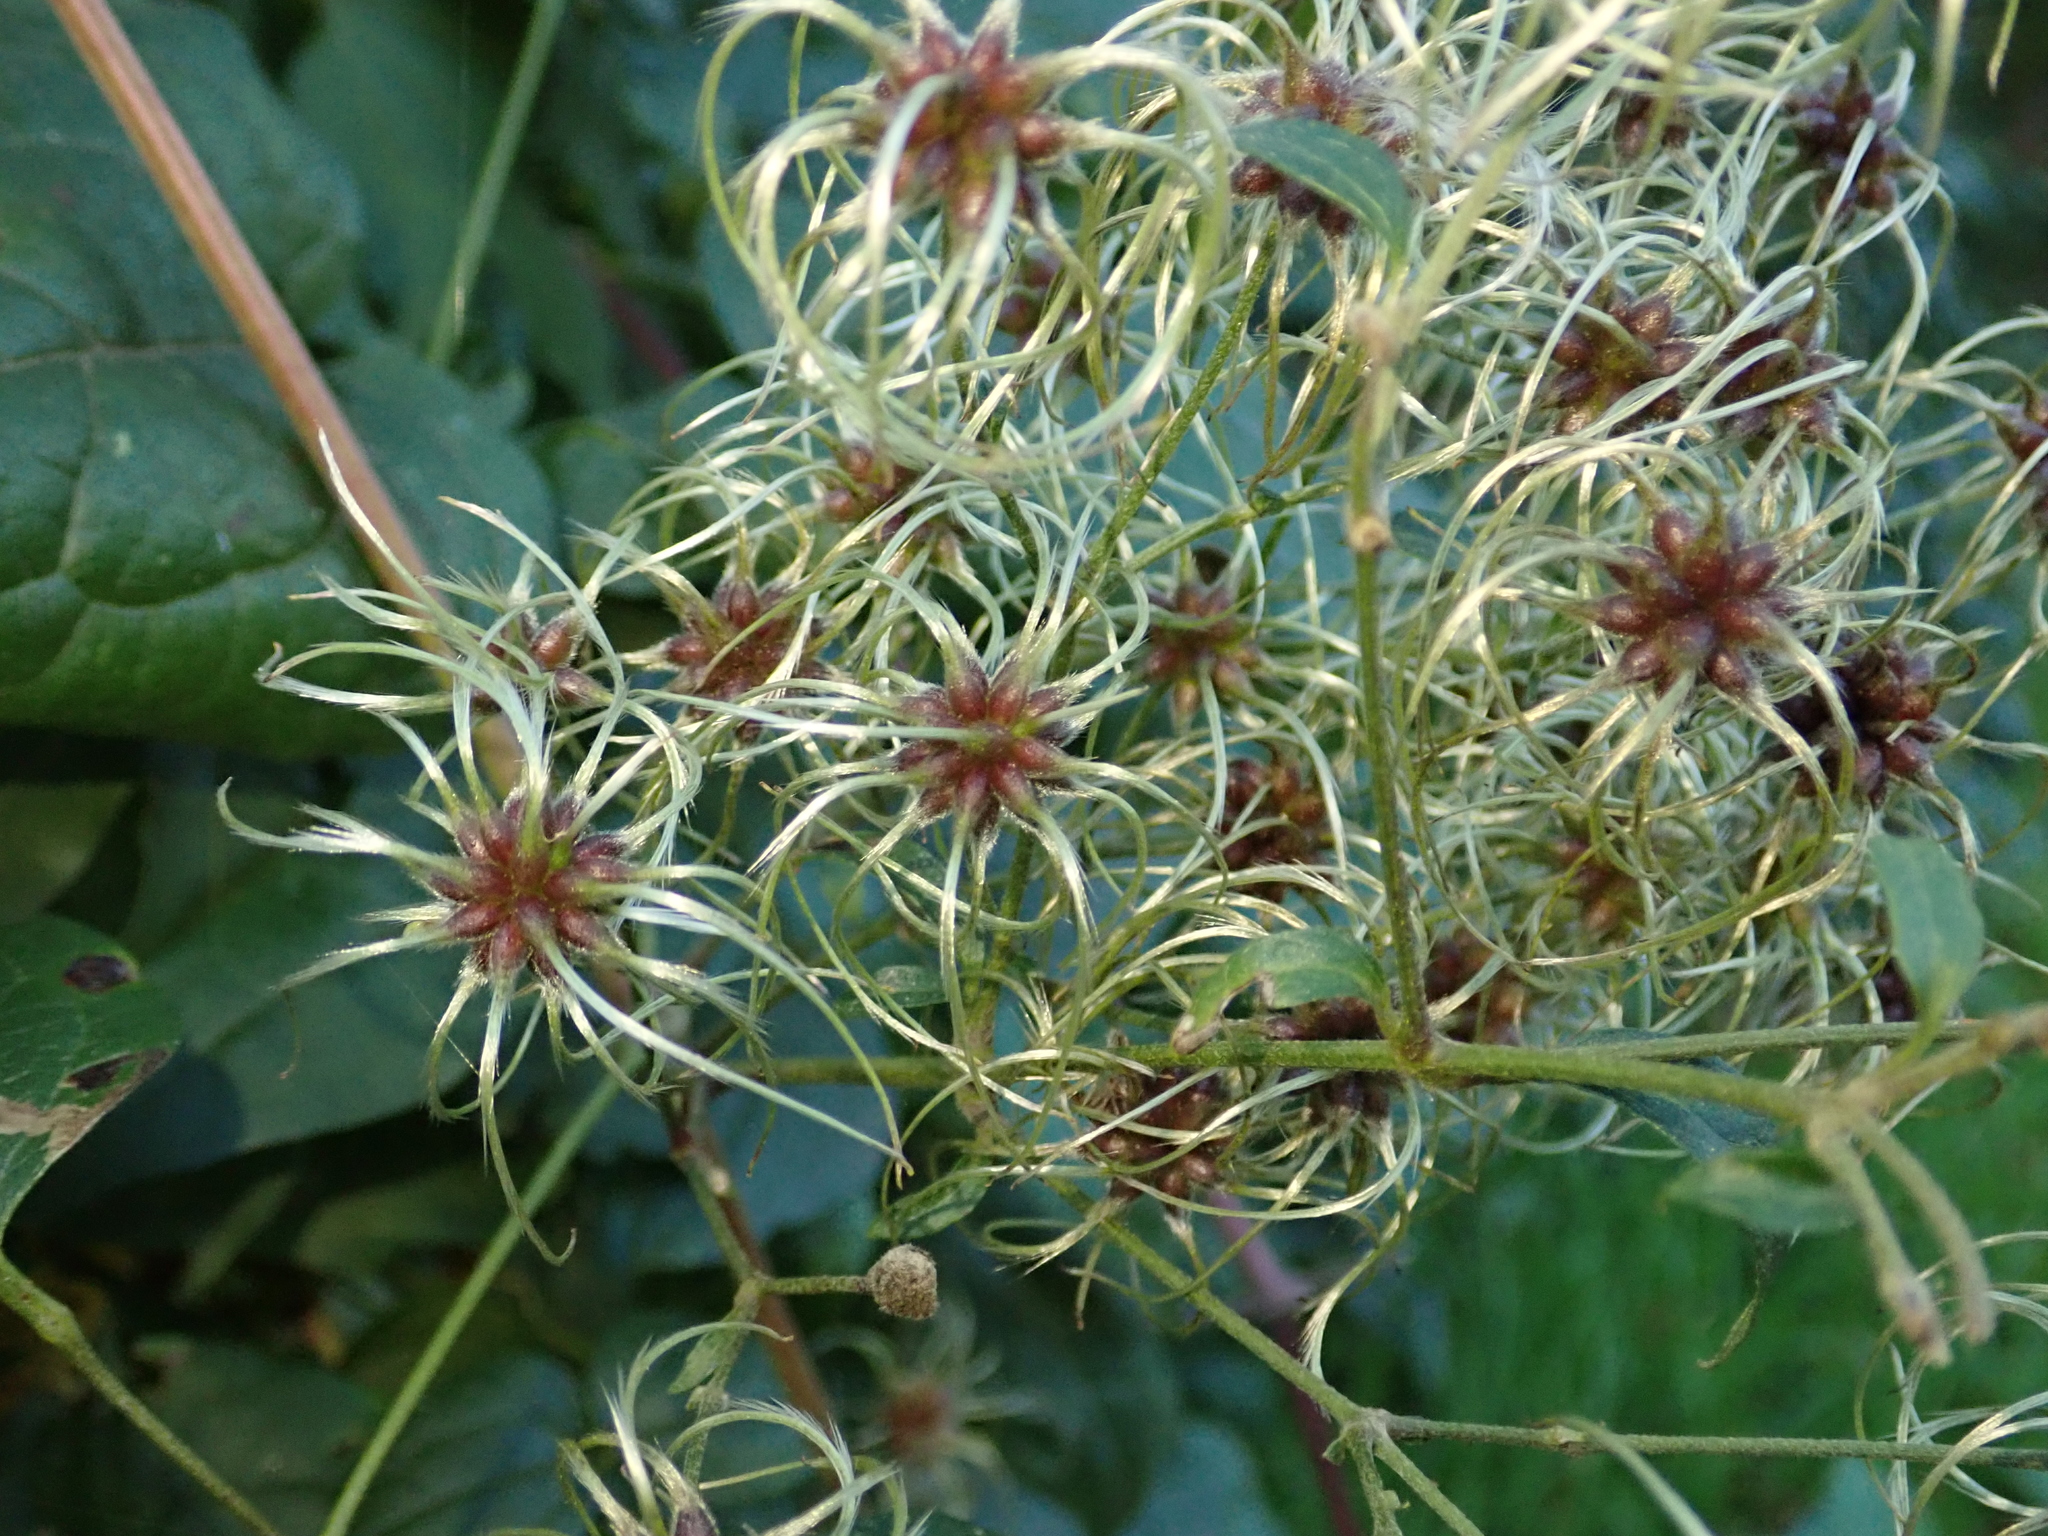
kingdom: Plantae
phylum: Tracheophyta
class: Magnoliopsida
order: Ranunculales
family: Ranunculaceae
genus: Clematis
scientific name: Clematis vitalba
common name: Evergreen clematis
